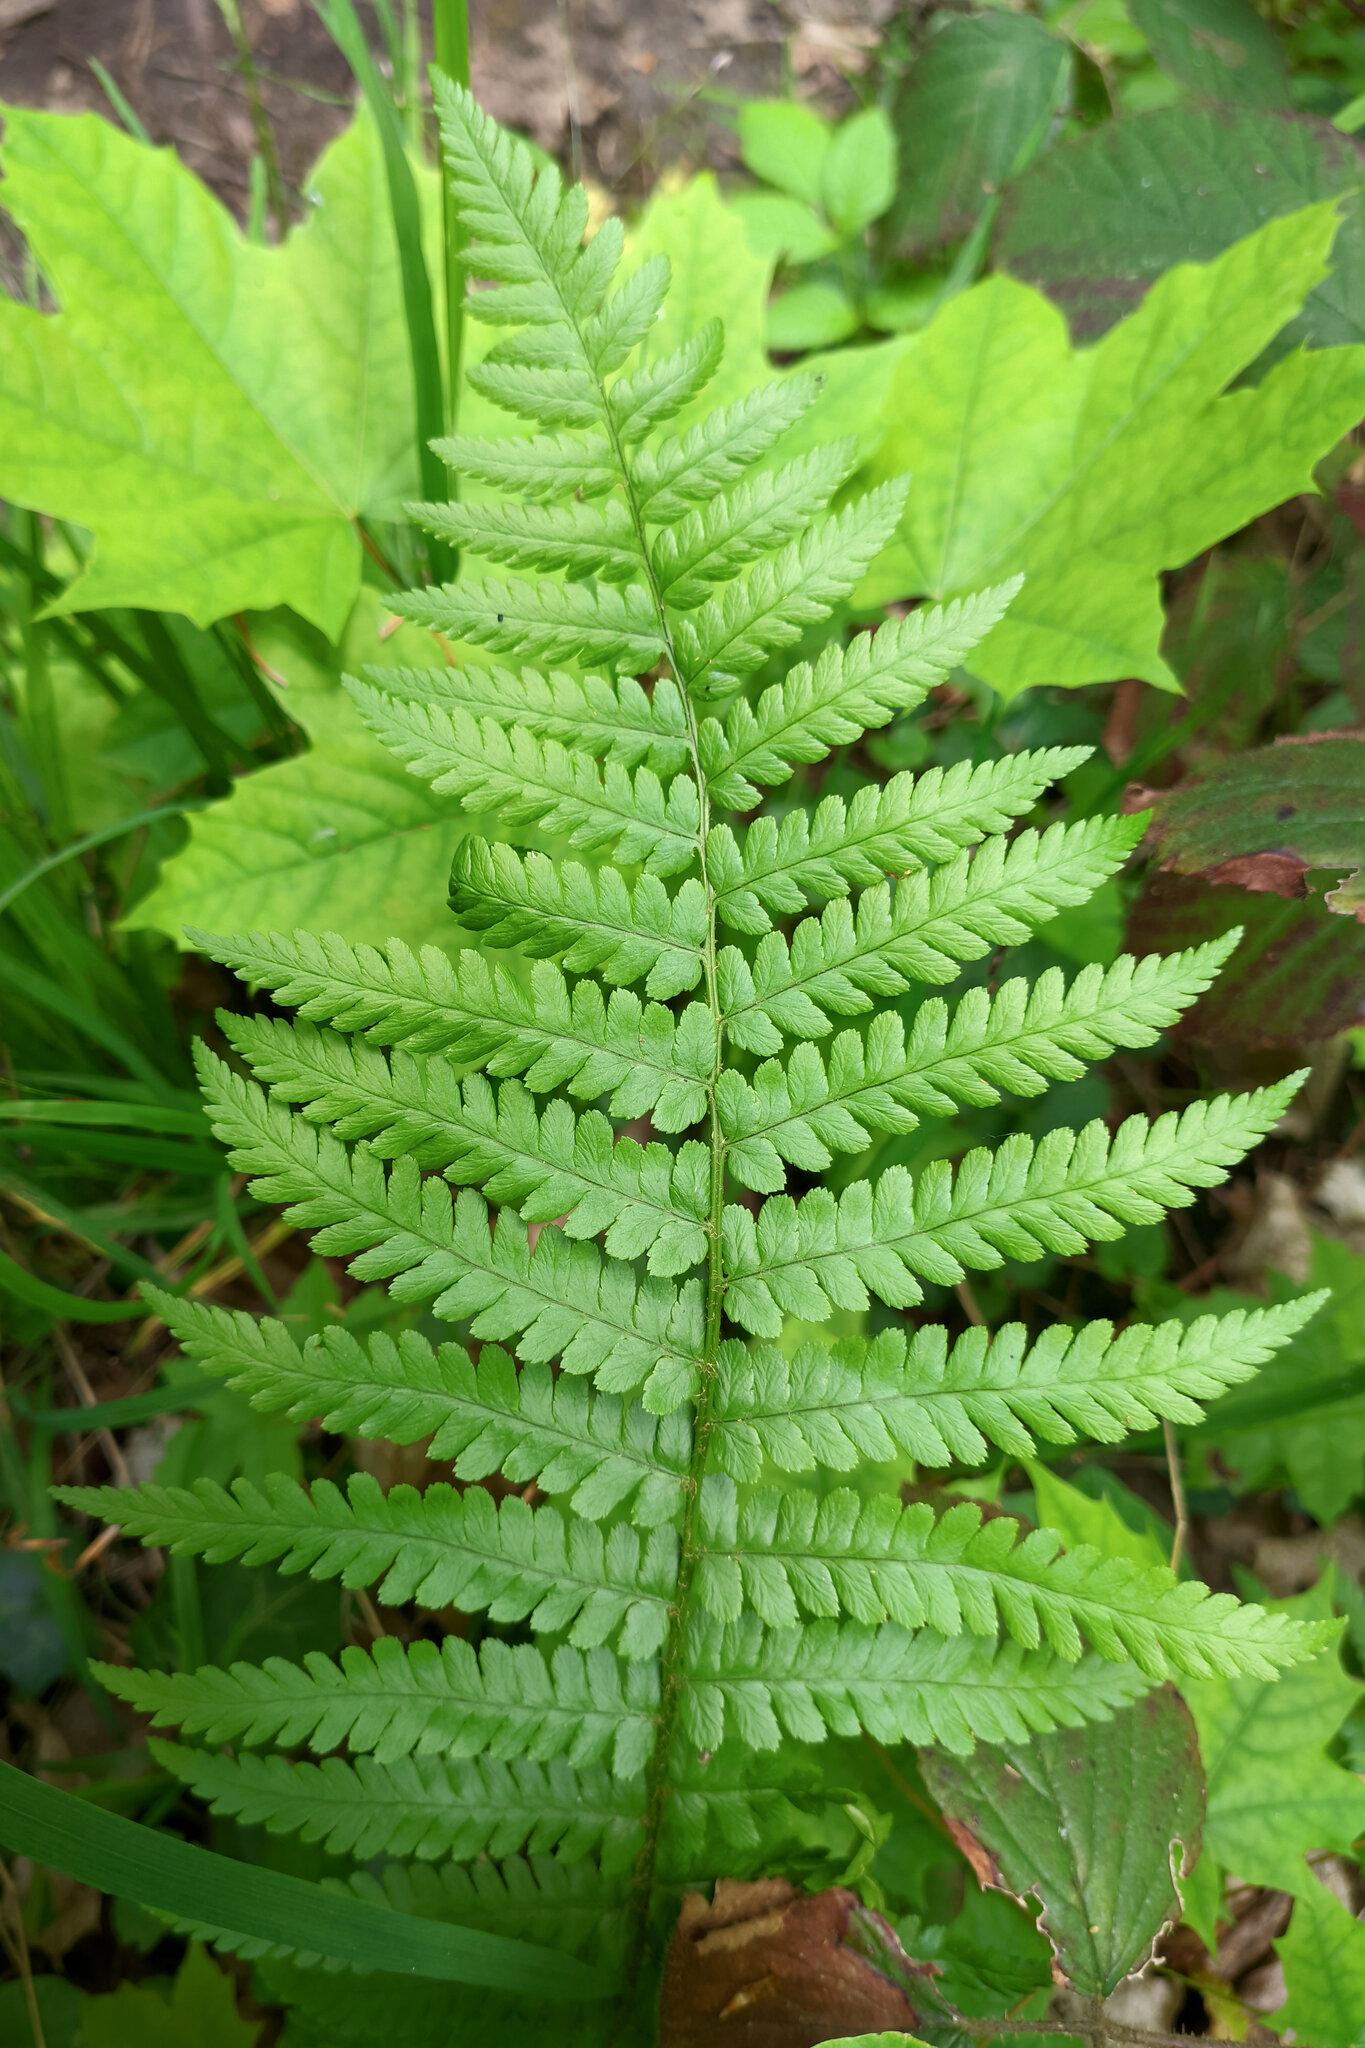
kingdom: Plantae
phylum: Tracheophyta
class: Polypodiopsida
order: Polypodiales
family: Dryopteridaceae
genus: Dryopteris
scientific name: Dryopteris filix-mas
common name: Male fern
